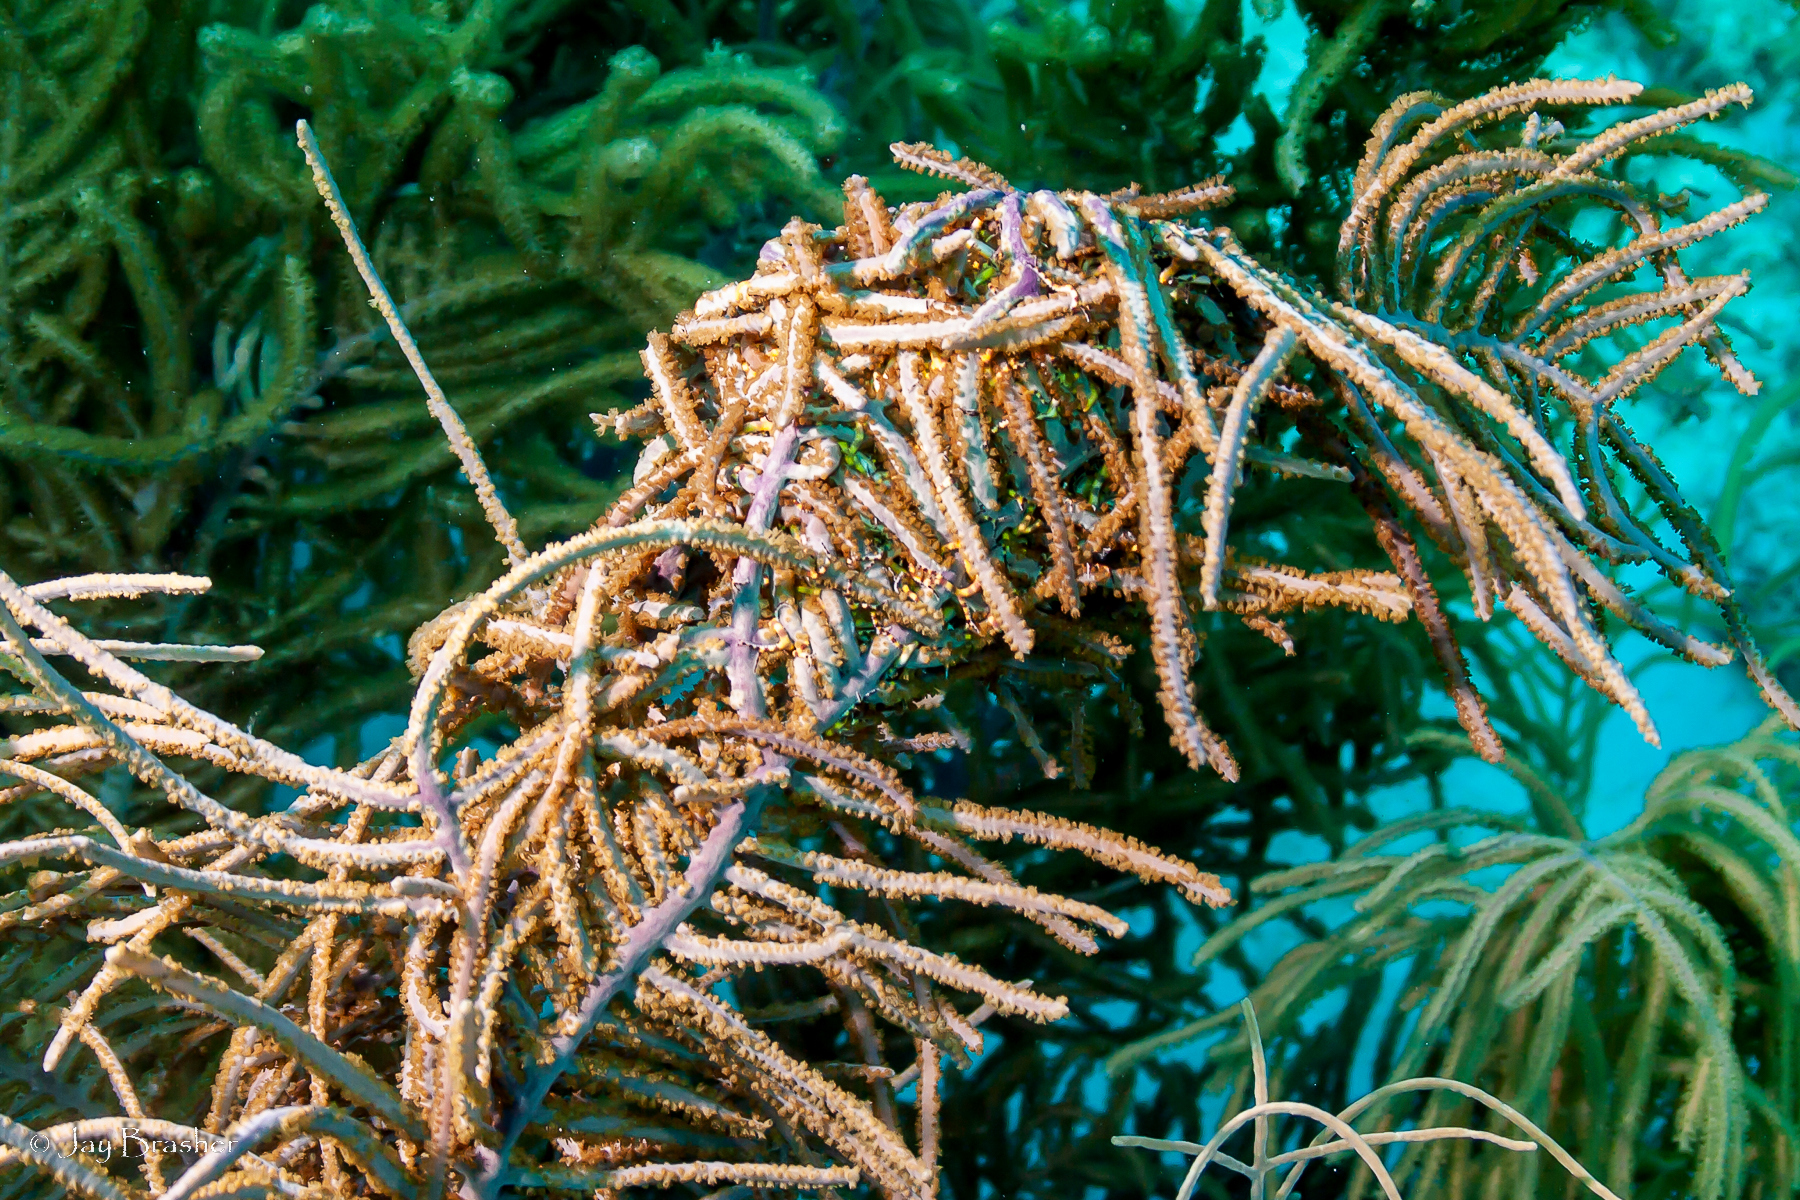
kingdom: Animalia
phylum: Echinodermata
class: Ophiuroidea
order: Euryalida
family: Gorgonocephalidae
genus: Astrophyton
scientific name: Astrophyton muricatum
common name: Basket starfish
